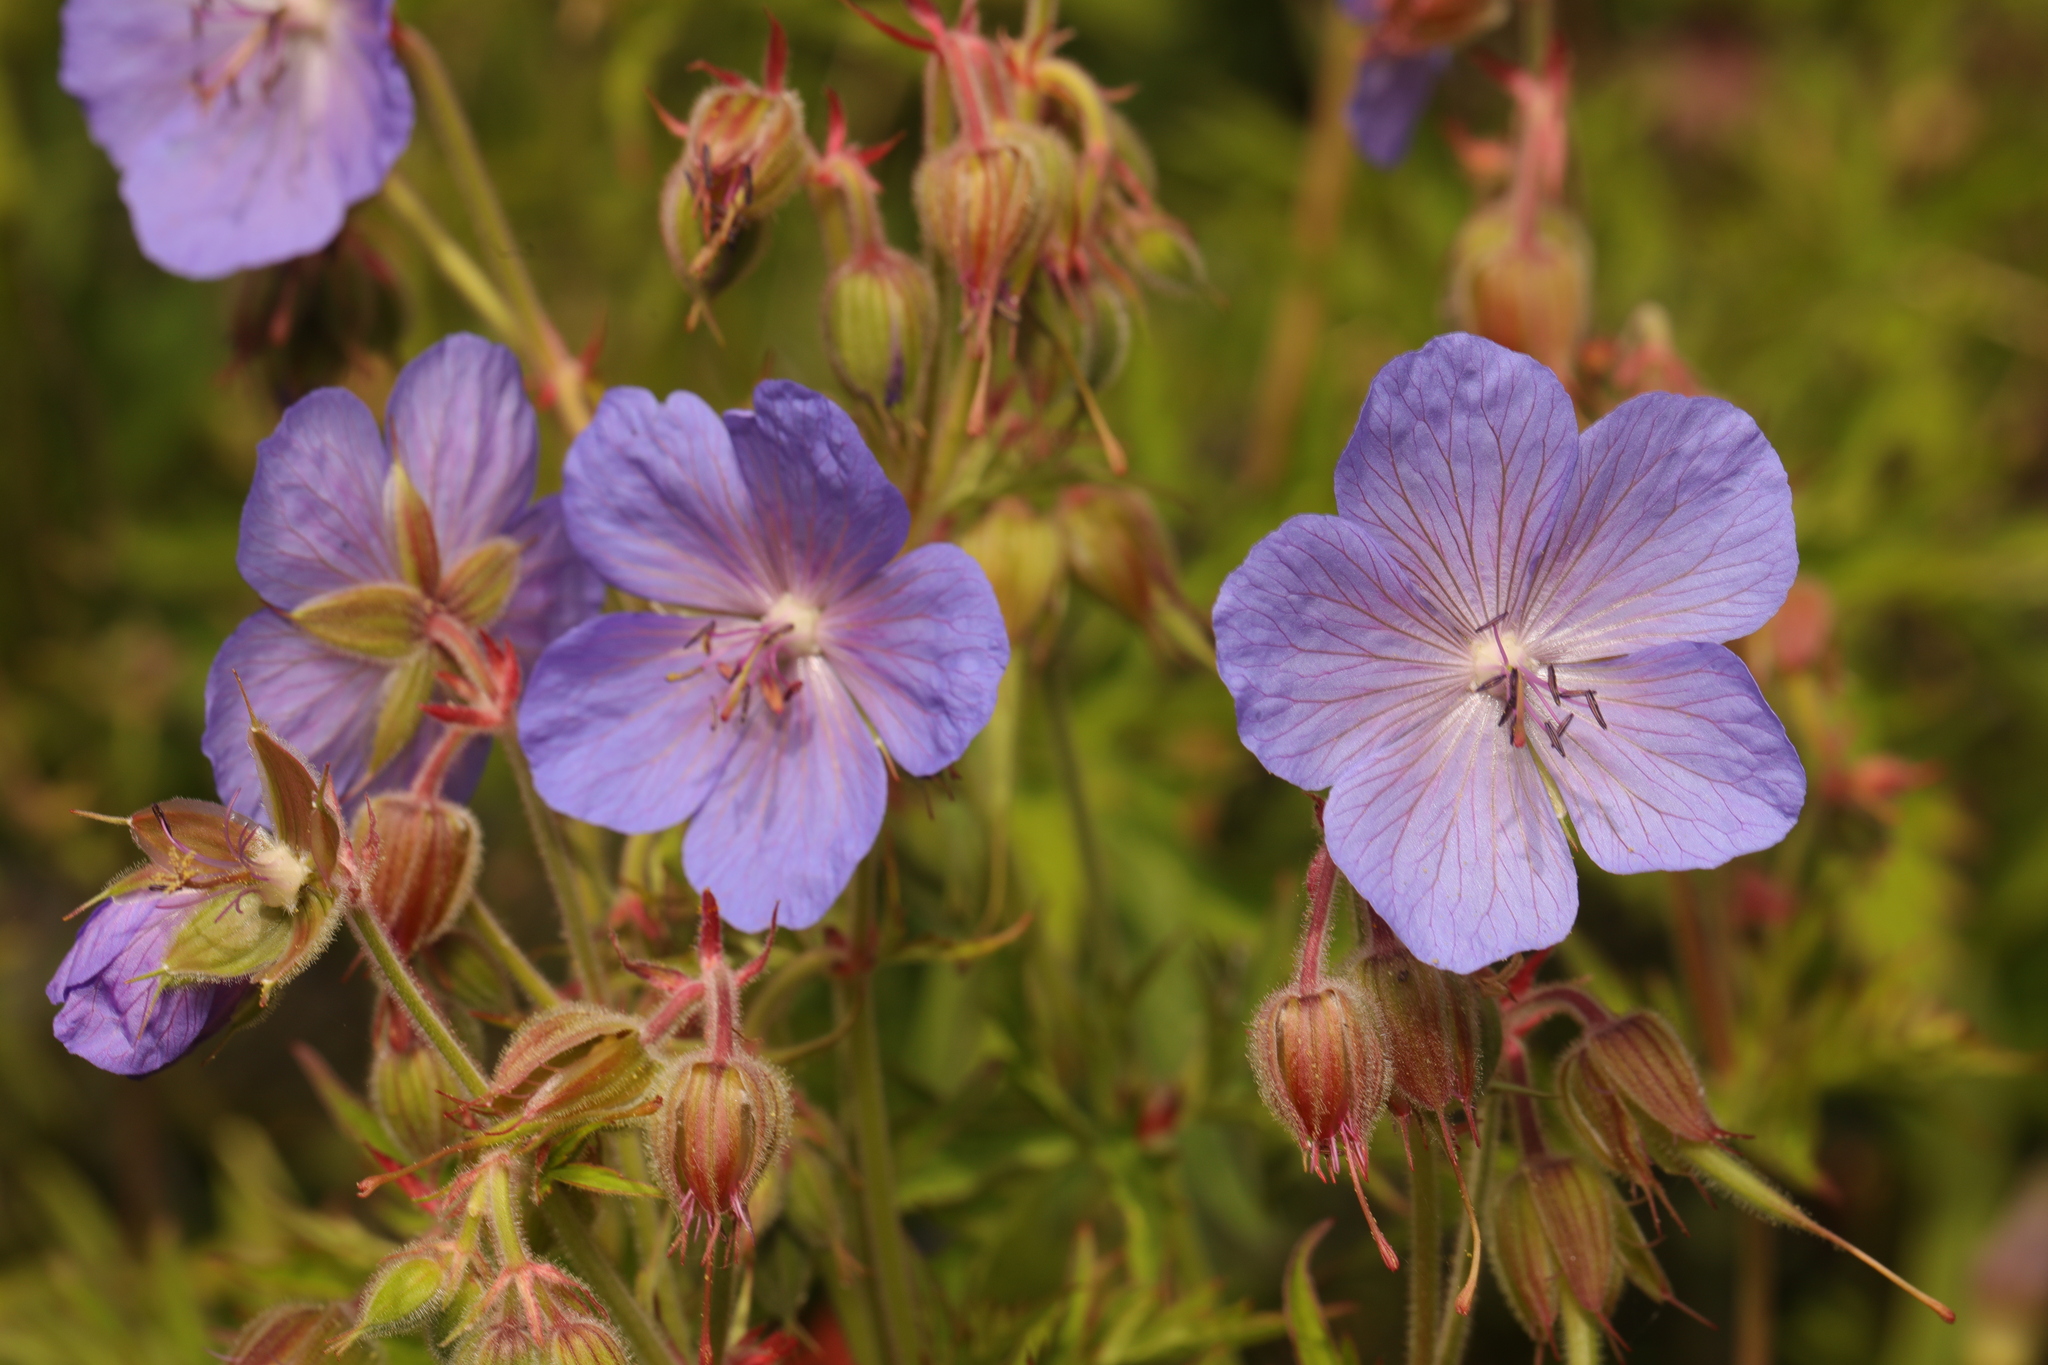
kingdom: Plantae
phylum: Tracheophyta
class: Magnoliopsida
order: Geraniales
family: Geraniaceae
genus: Geranium
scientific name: Geranium pratense
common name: Meadow crane's-bill
